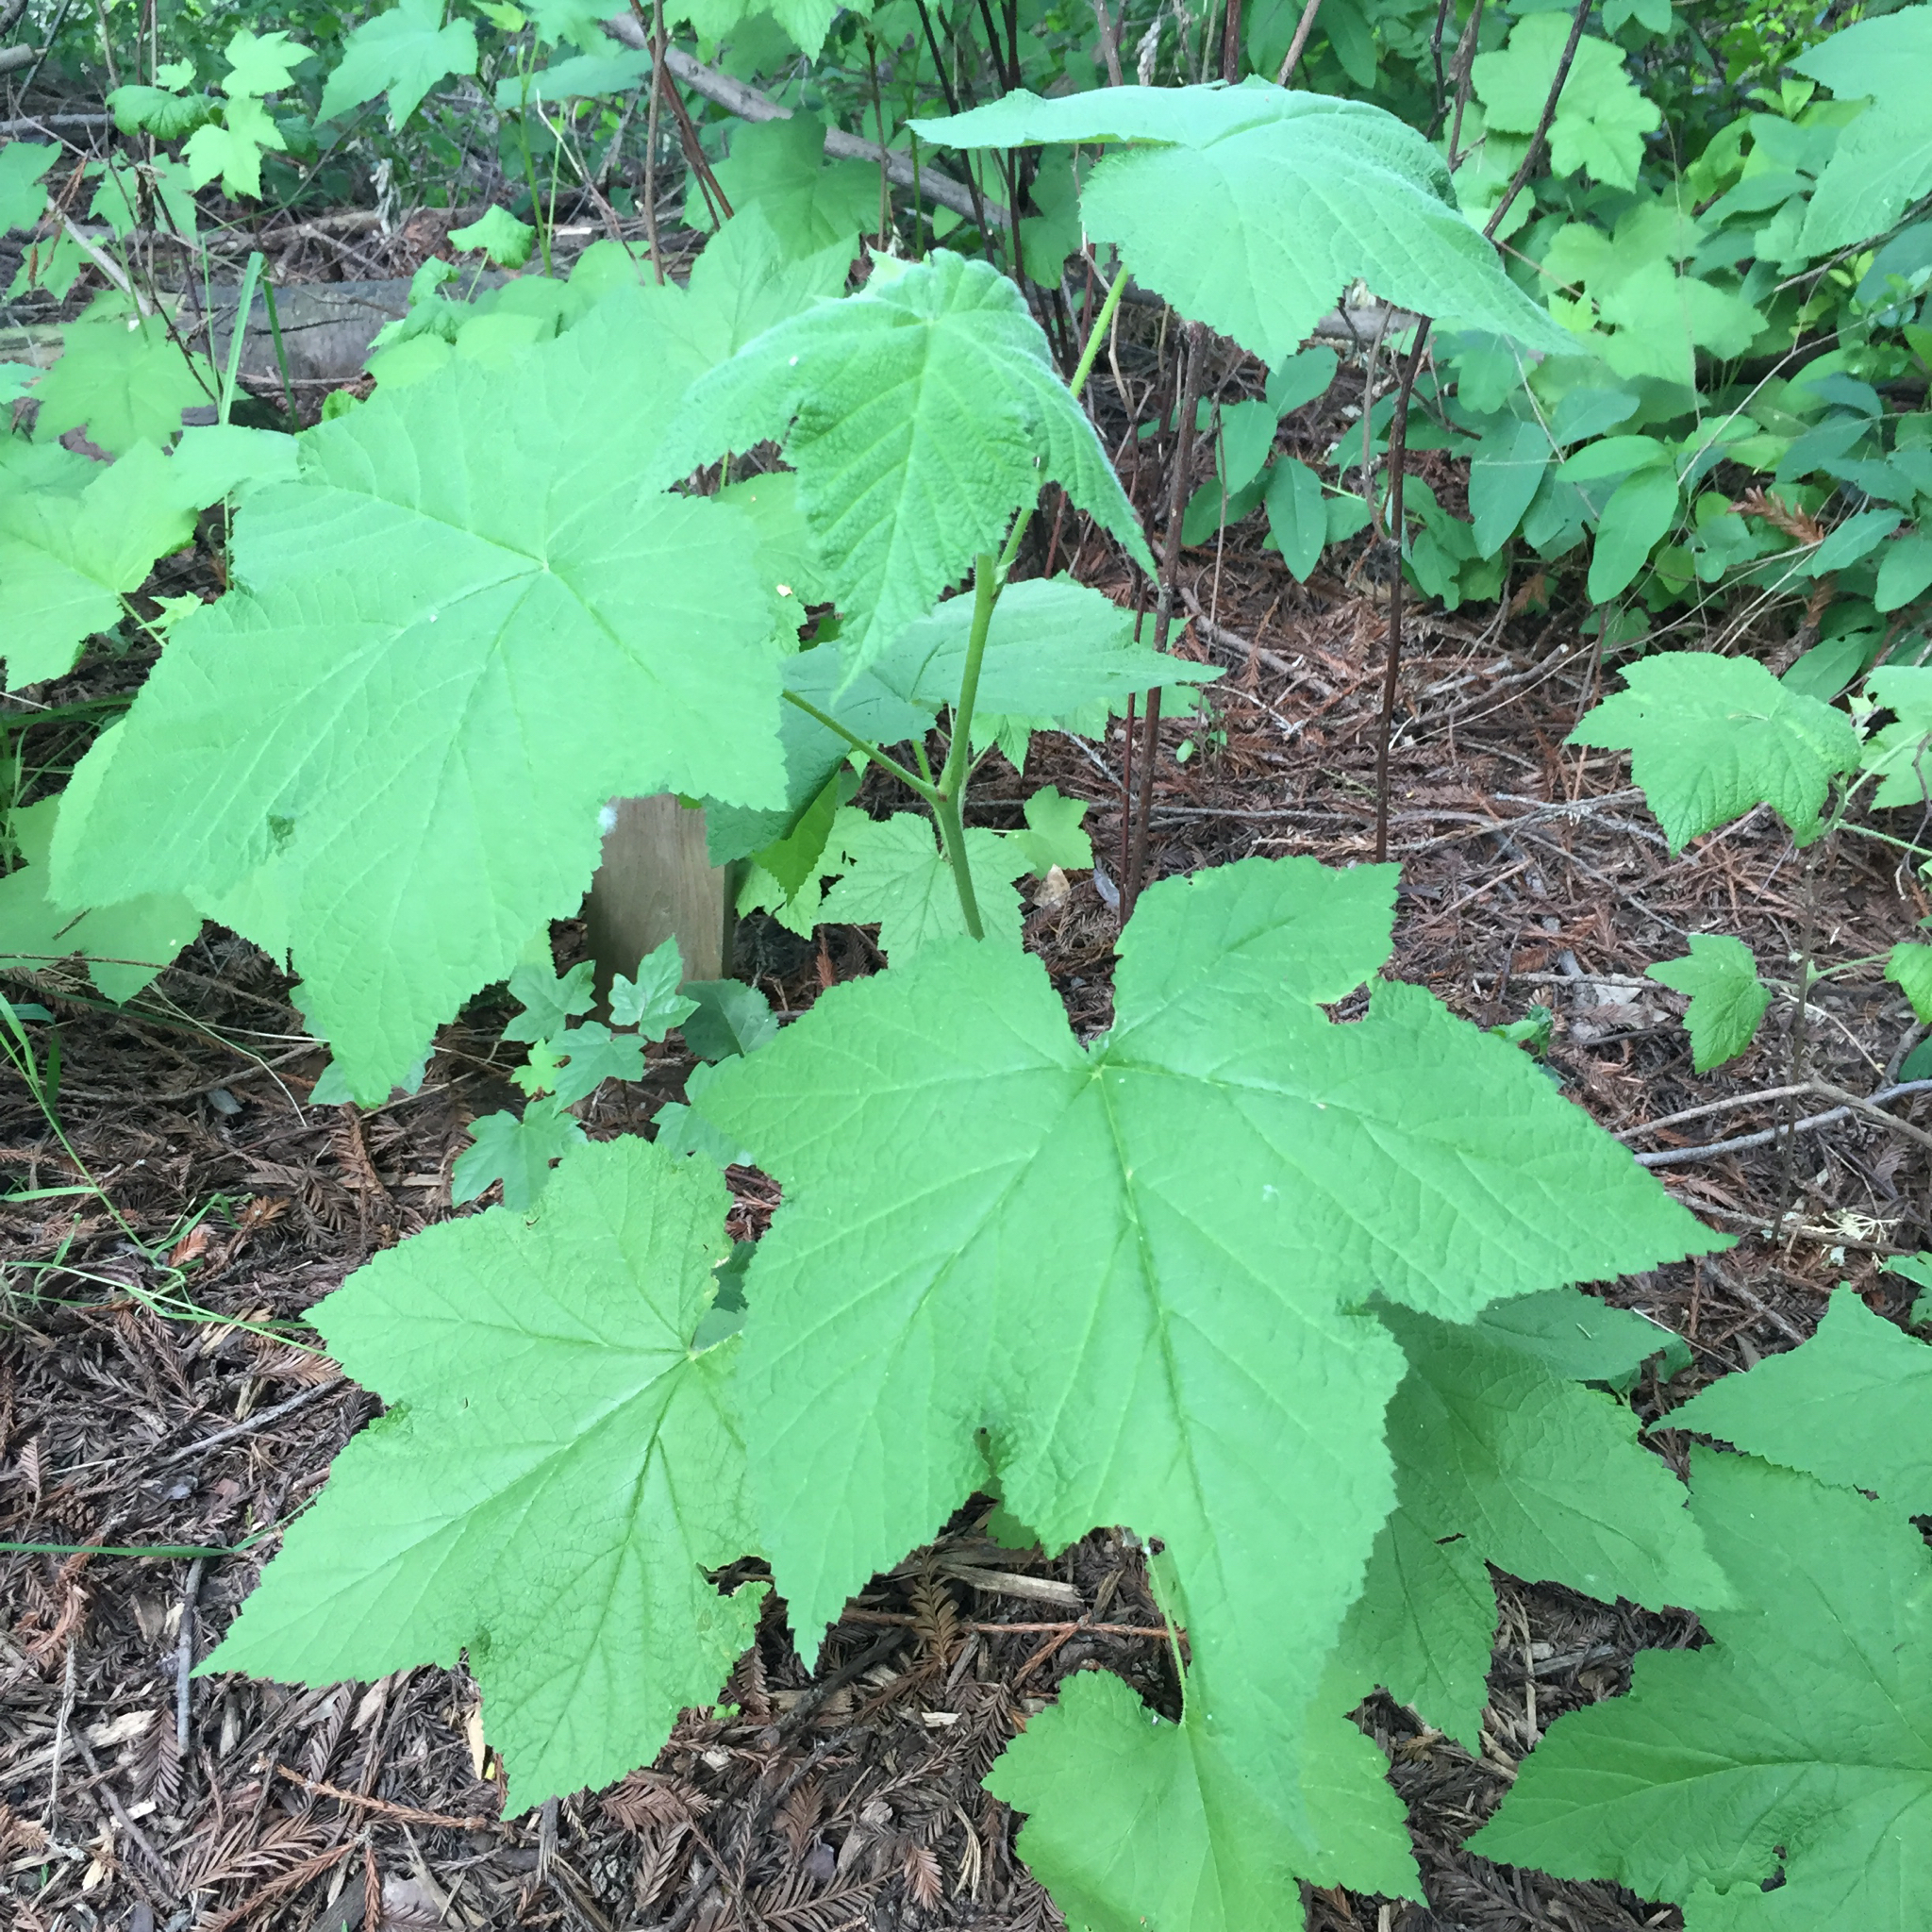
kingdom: Plantae
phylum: Tracheophyta
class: Magnoliopsida
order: Rosales
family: Rosaceae
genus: Rubus
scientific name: Rubus parviflorus
